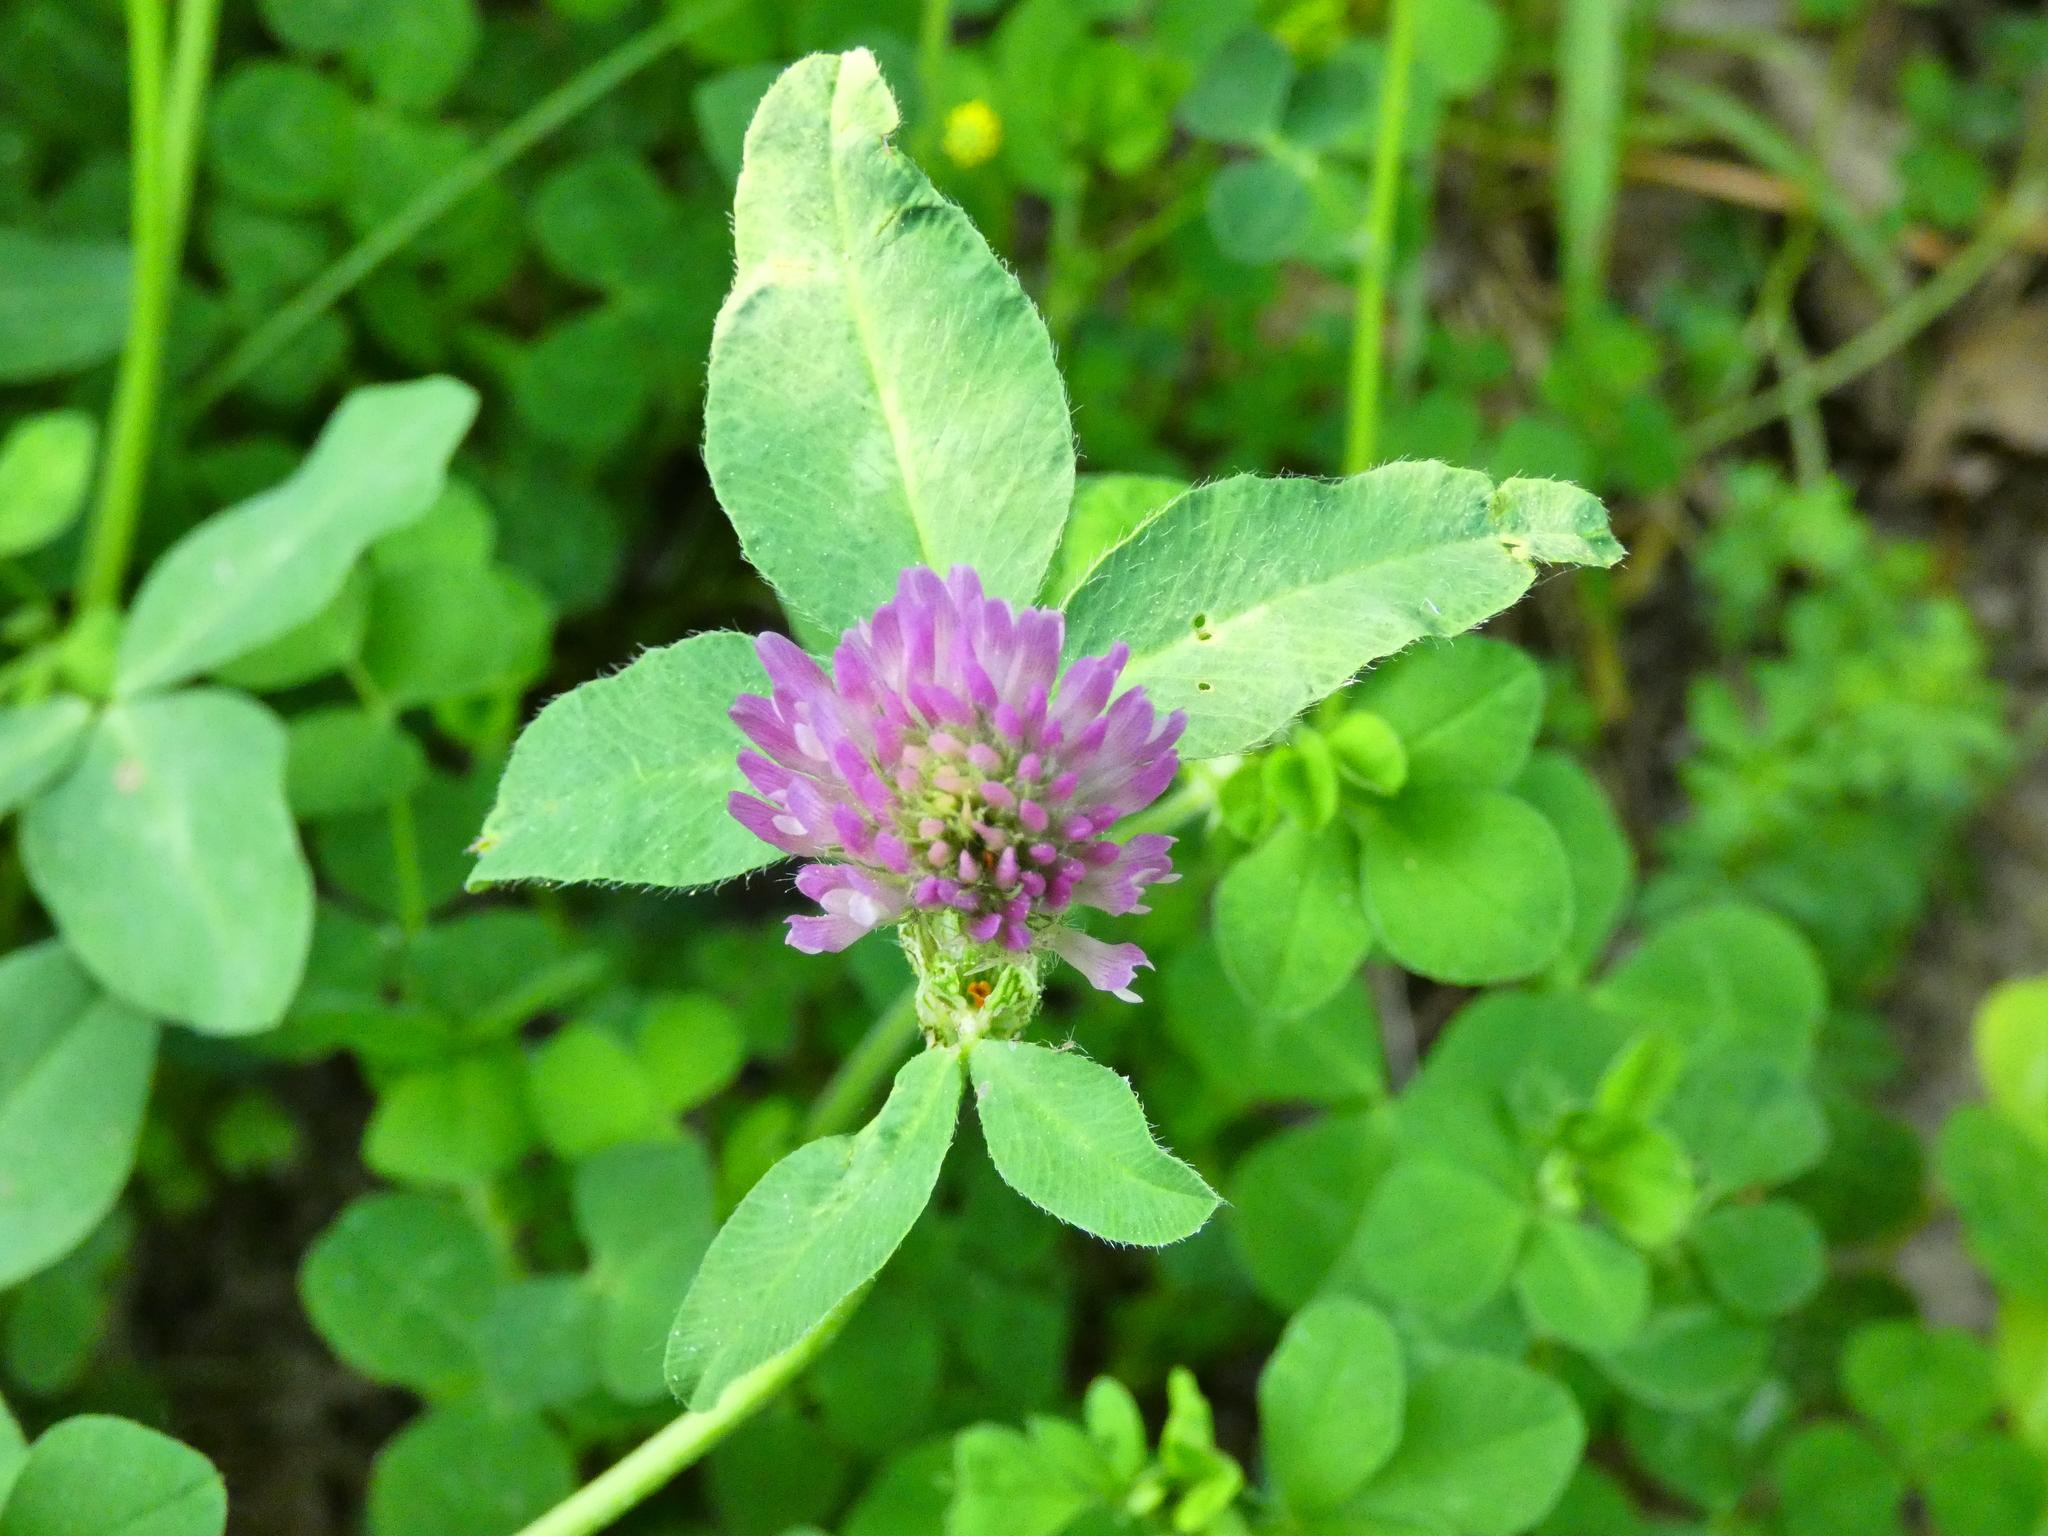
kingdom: Plantae
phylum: Tracheophyta
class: Magnoliopsida
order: Fabales
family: Fabaceae
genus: Trifolium
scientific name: Trifolium pratense
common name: Red clover
